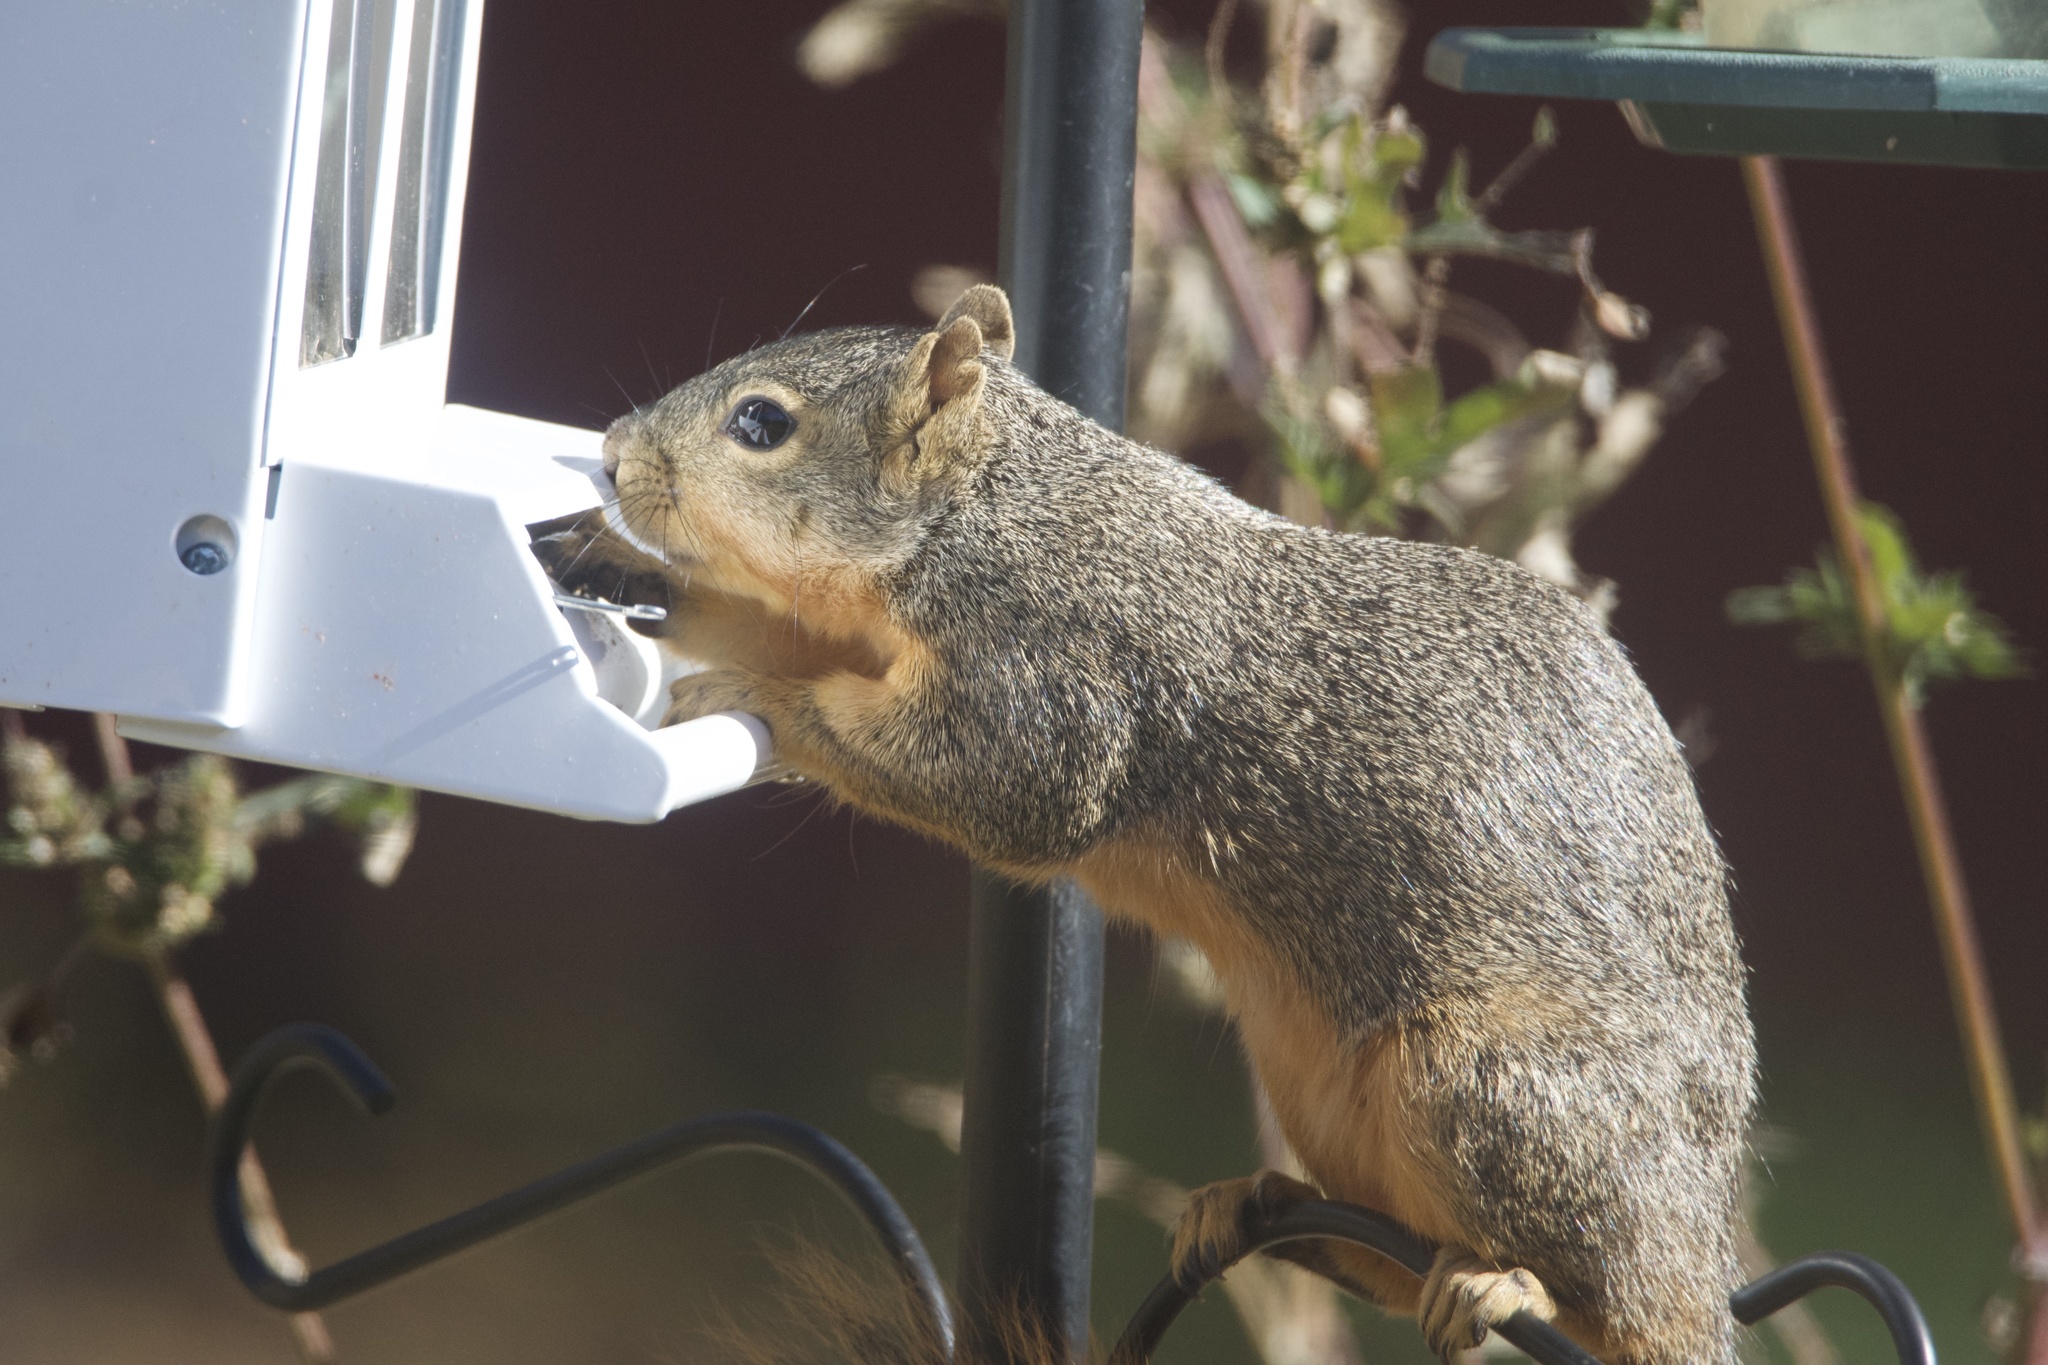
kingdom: Animalia
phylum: Chordata
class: Mammalia
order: Rodentia
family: Sciuridae
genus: Sciurus
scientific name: Sciurus niger
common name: Fox squirrel
